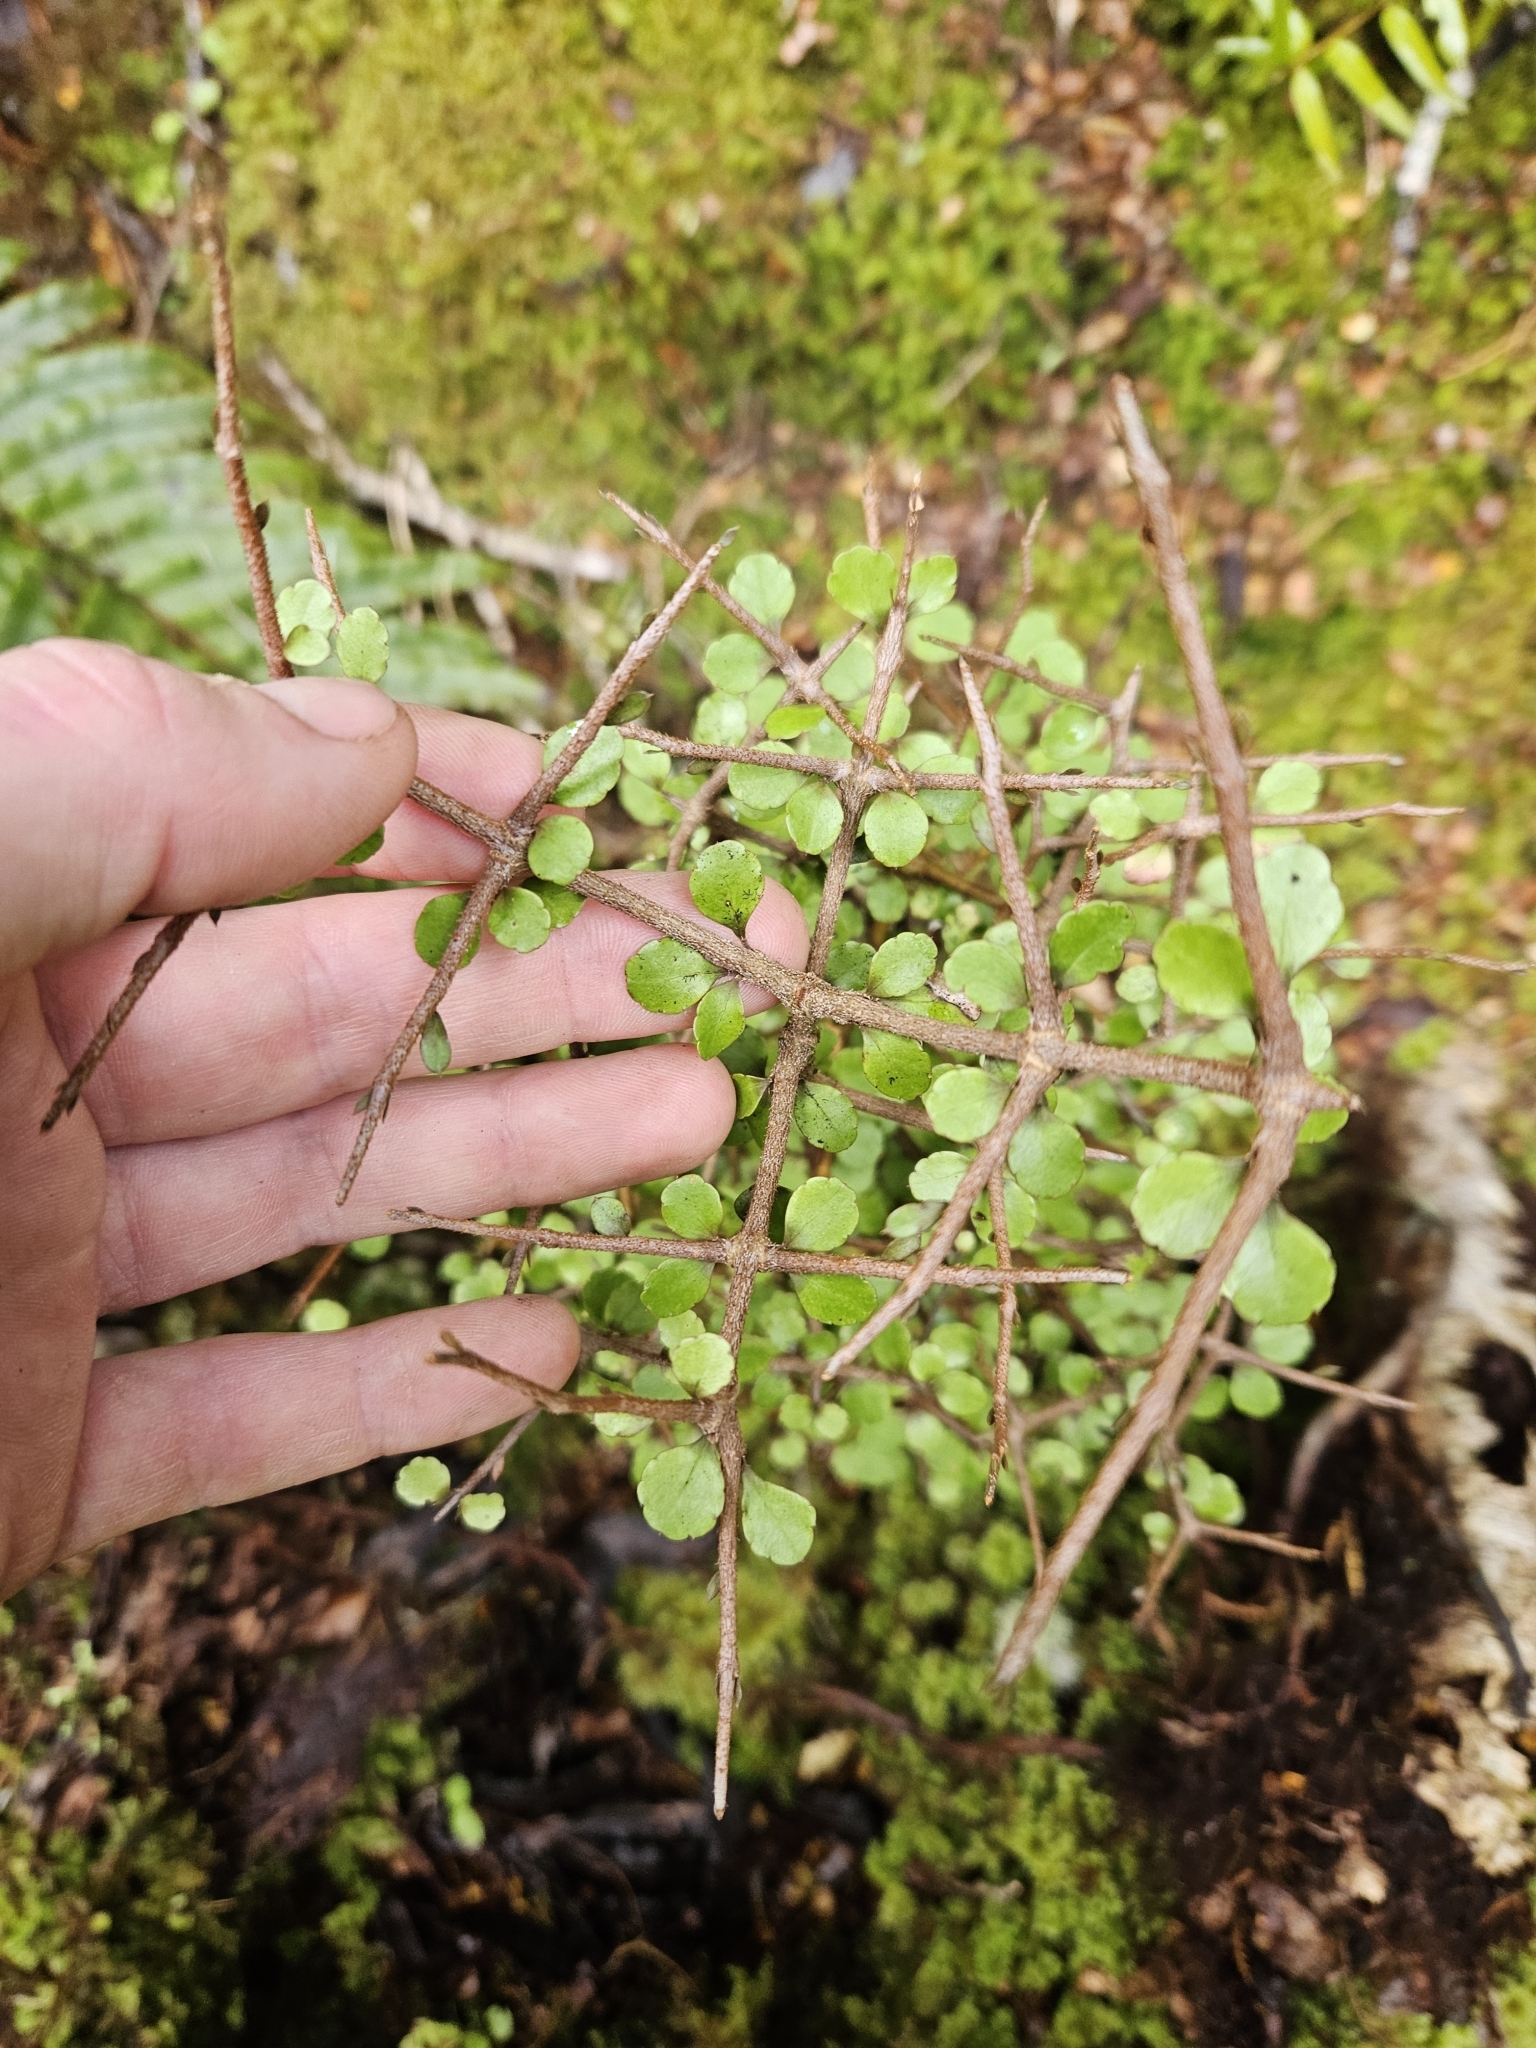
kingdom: Plantae
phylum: Tracheophyta
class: Magnoliopsida
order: Apiales
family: Araliaceae
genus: Raukaua
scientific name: Raukaua anomalus
